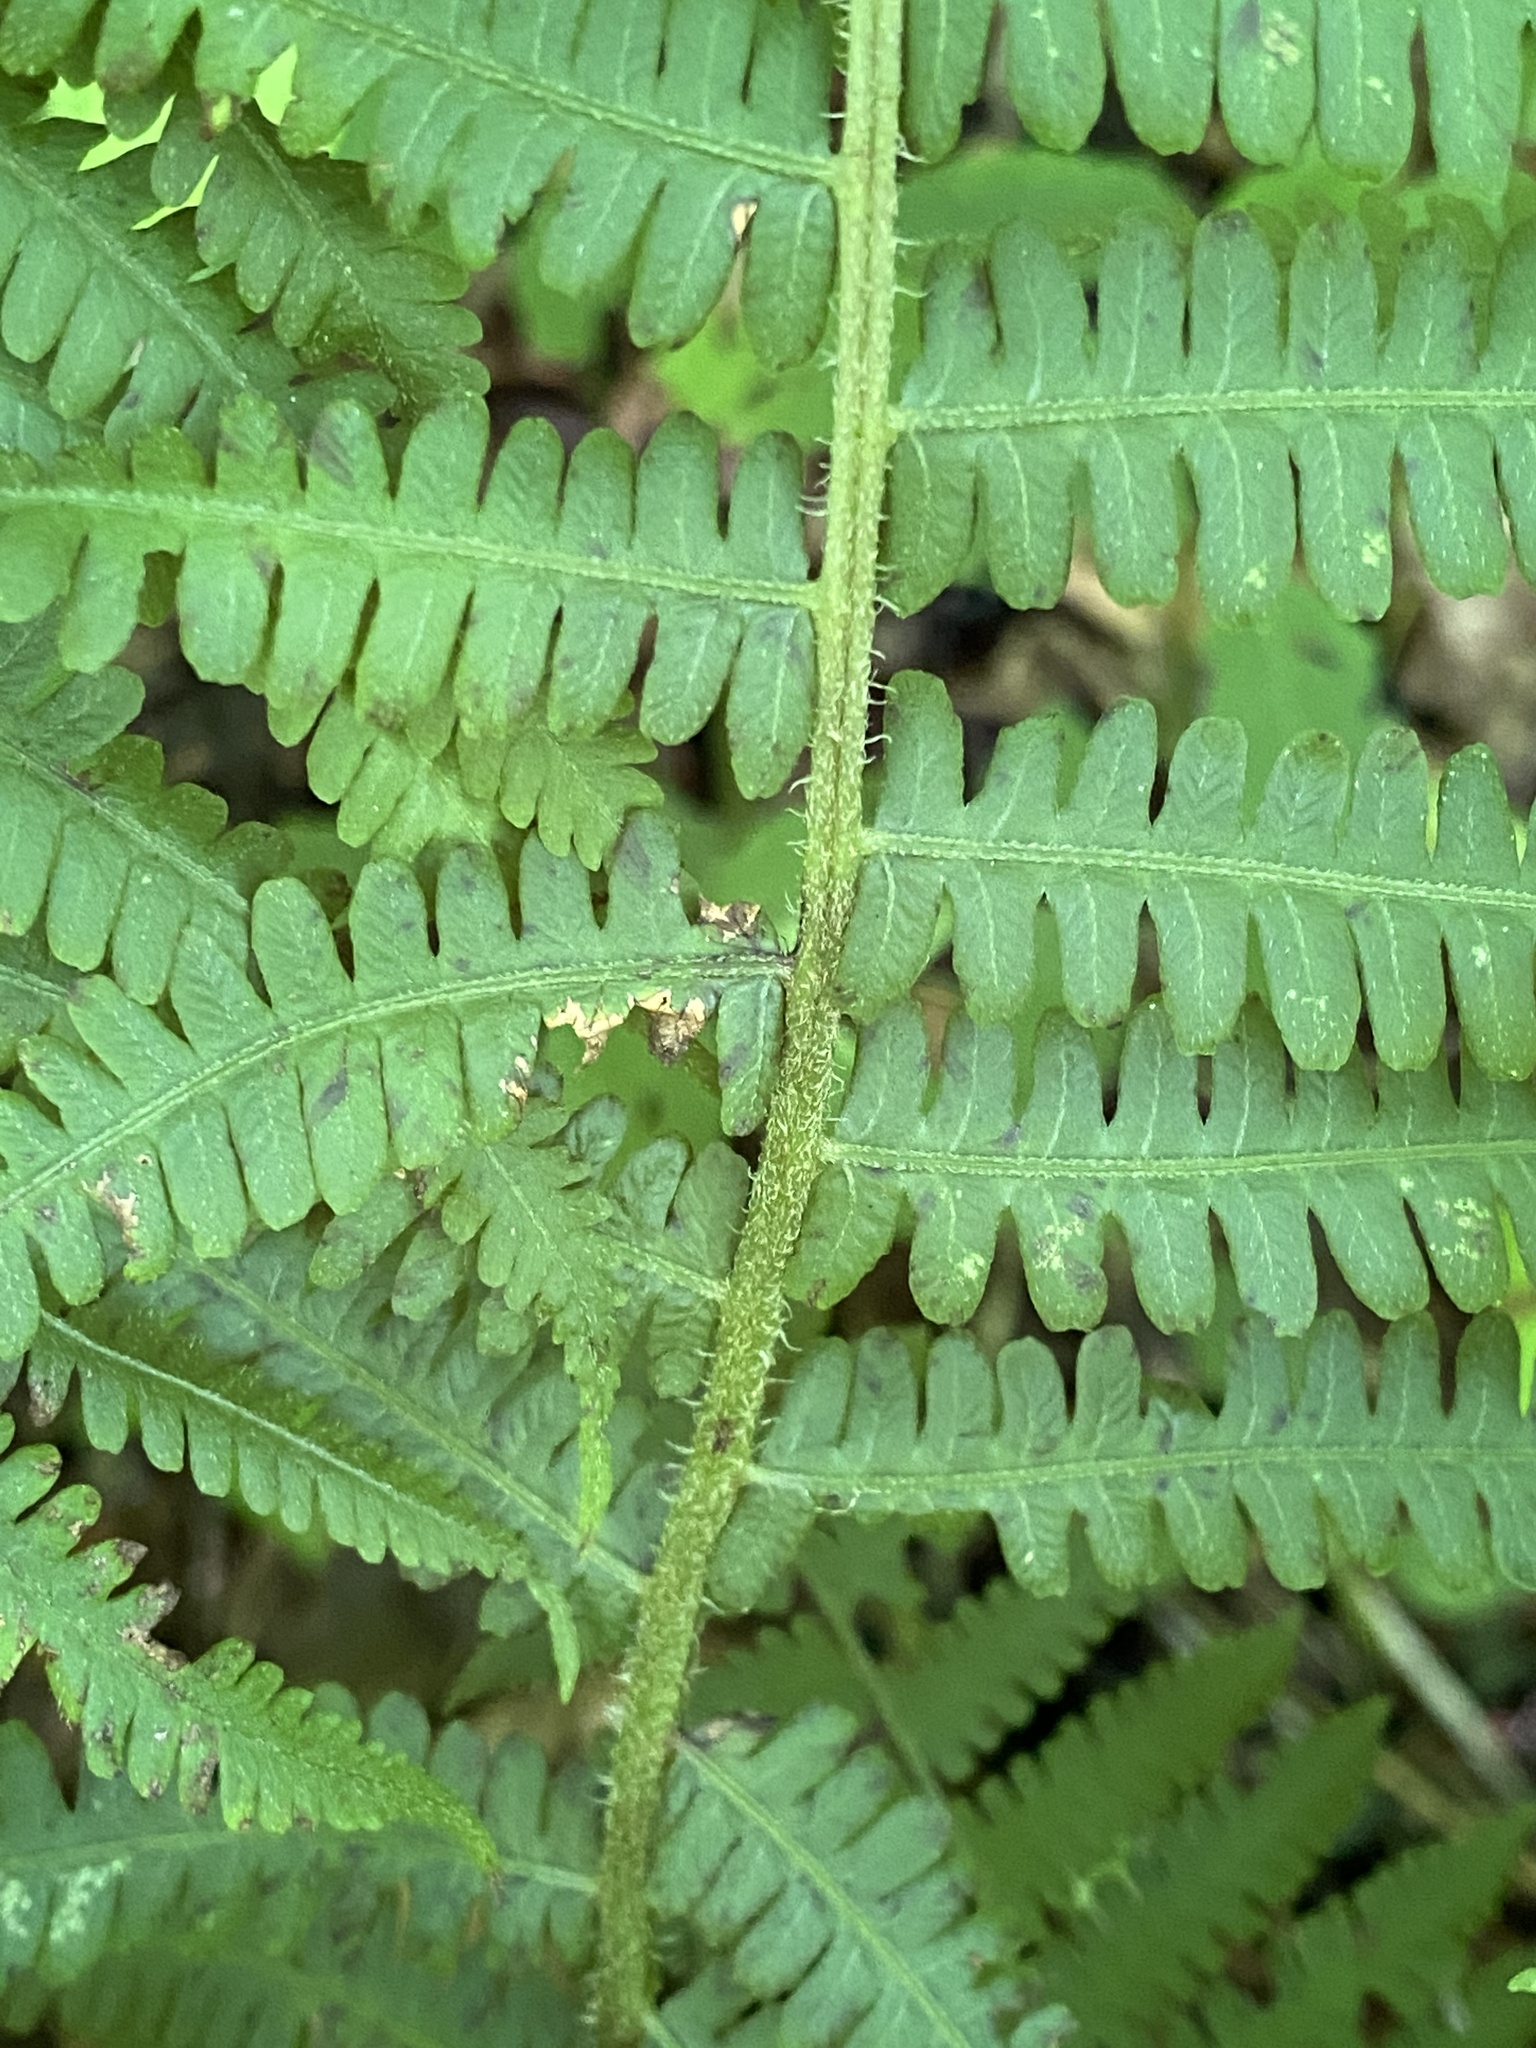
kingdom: Plantae
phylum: Tracheophyta
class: Polypodiopsida
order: Polypodiales
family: Athyriaceae
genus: Deparia
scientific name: Deparia acrostichoides
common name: Silver false spleenwort
